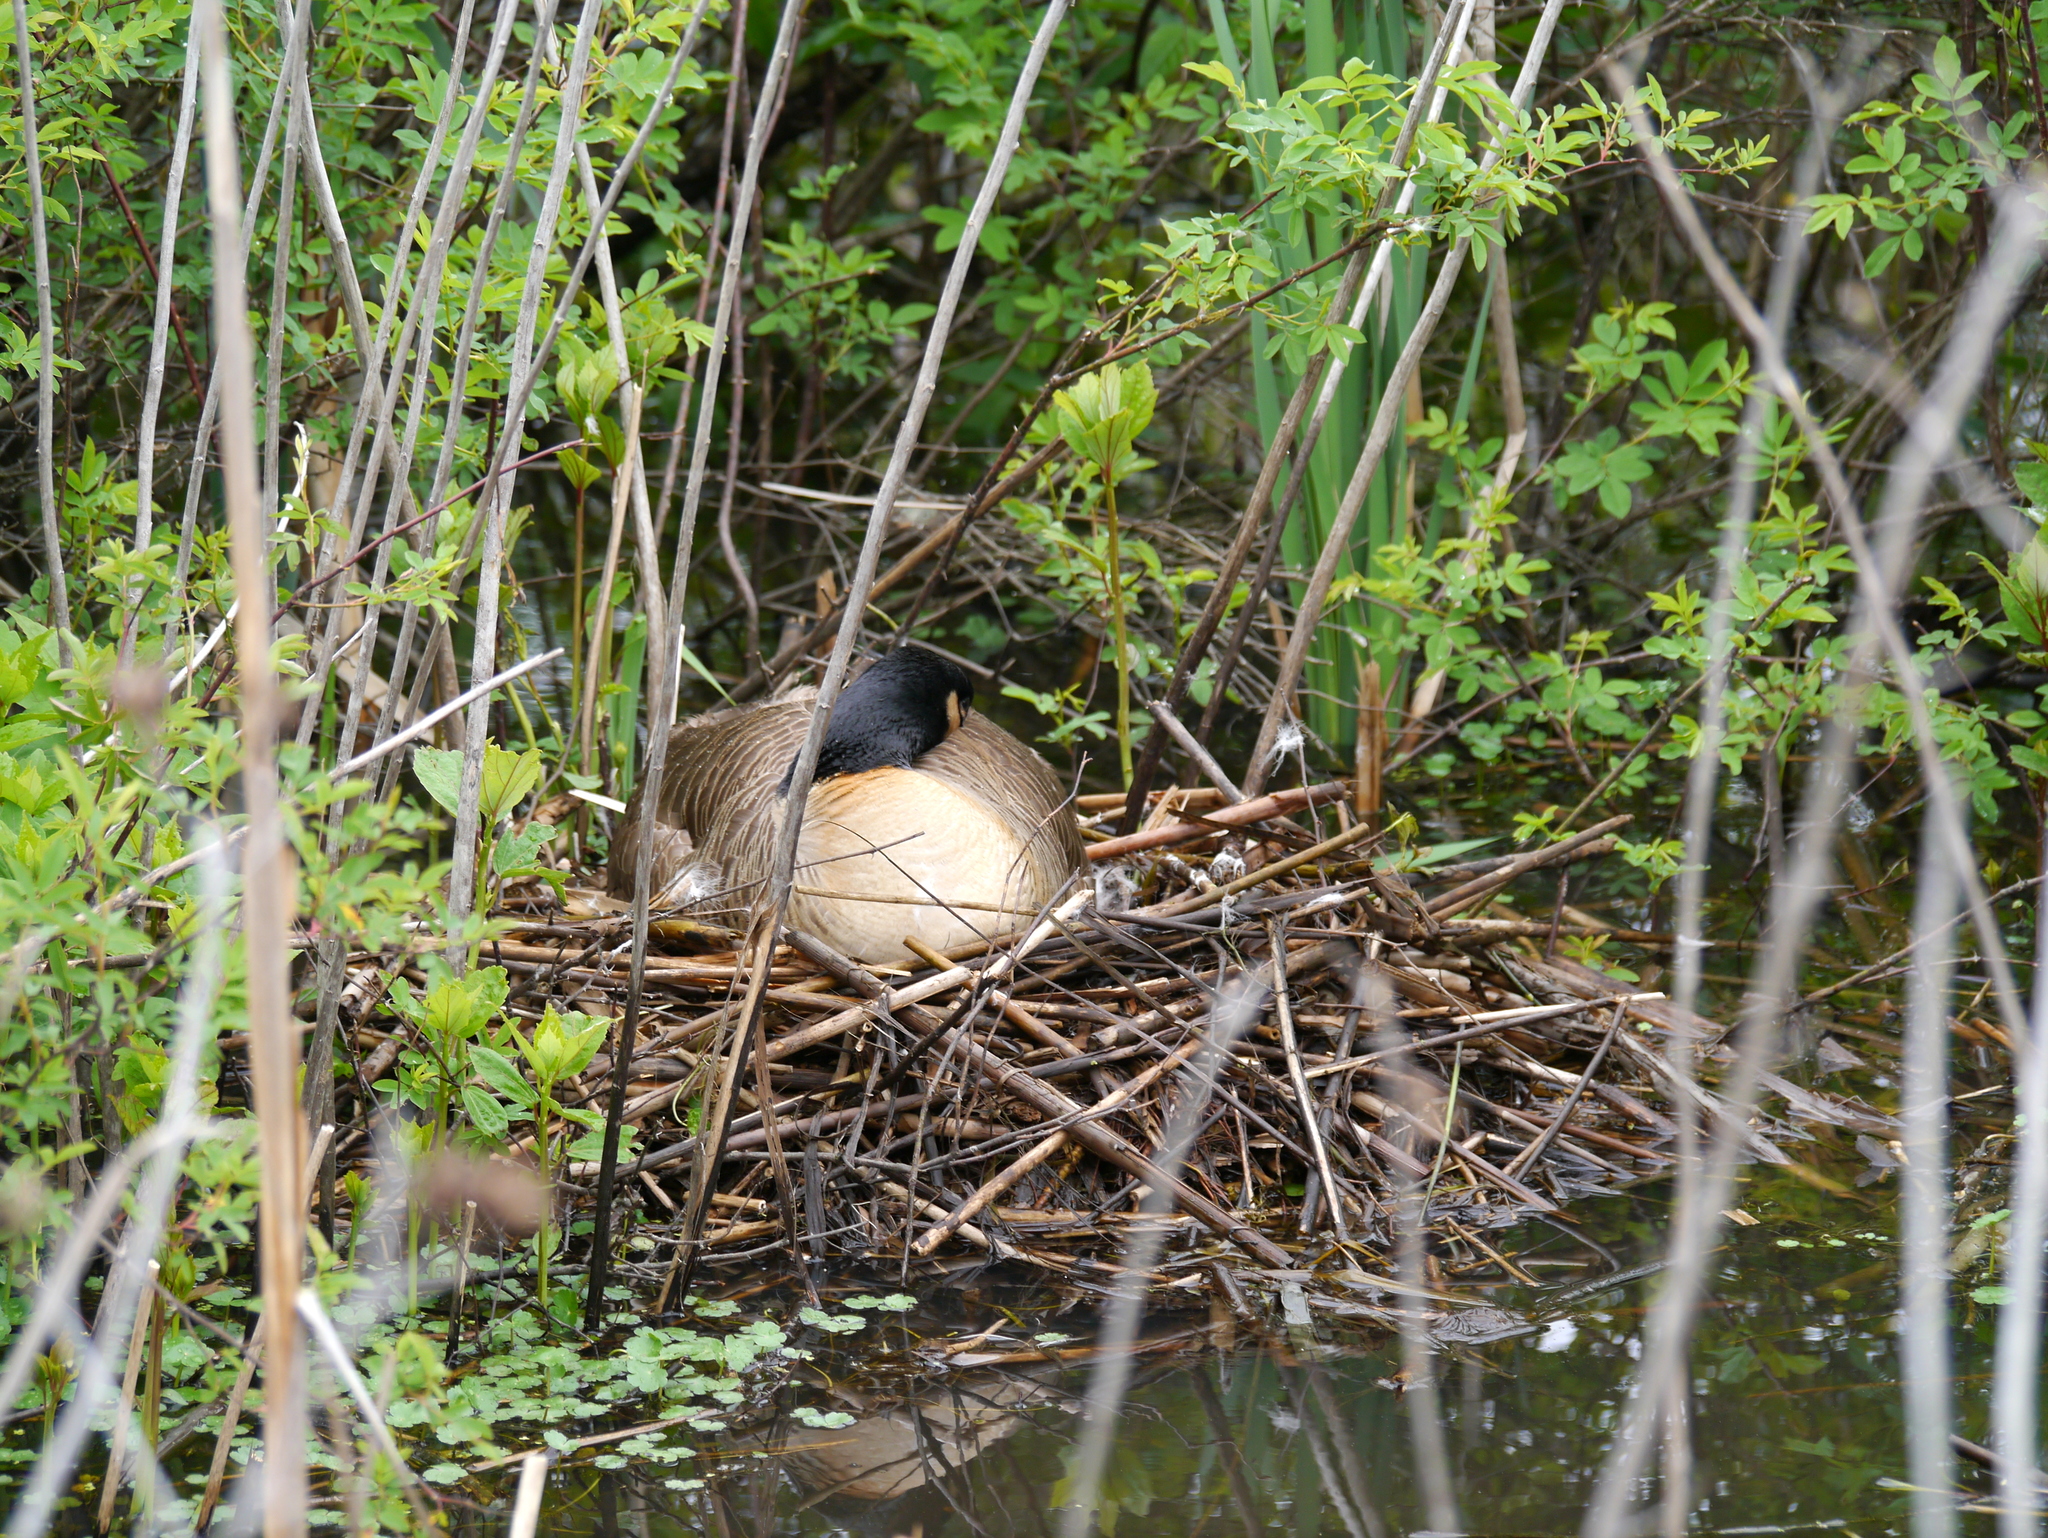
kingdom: Animalia
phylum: Chordata
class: Aves
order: Anseriformes
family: Anatidae
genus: Branta
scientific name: Branta canadensis
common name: Canada goose
